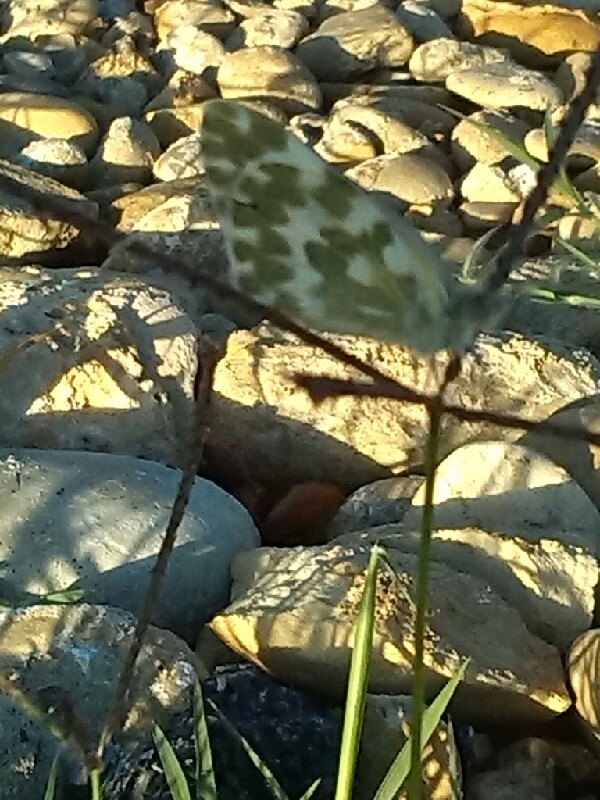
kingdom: Animalia
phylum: Arthropoda
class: Insecta
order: Lepidoptera
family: Pieridae
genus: Pontia
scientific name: Pontia daplidice
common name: Bath white
